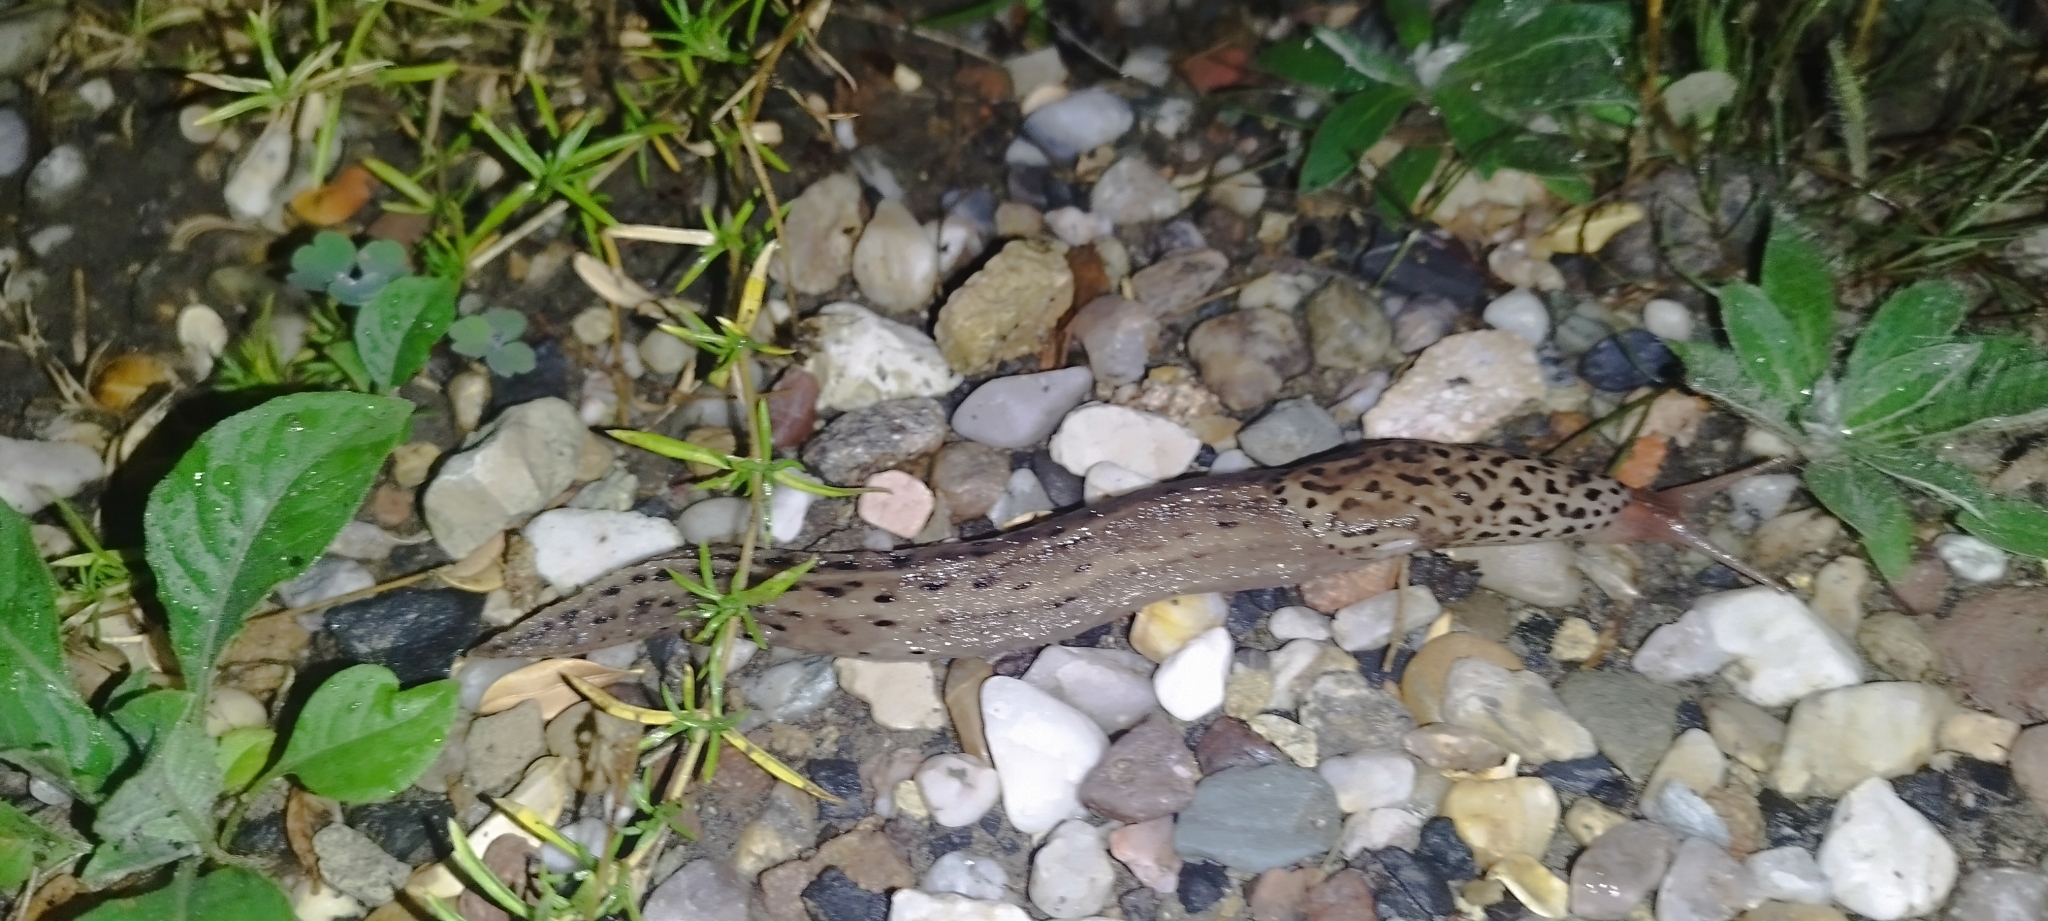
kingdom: Animalia
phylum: Mollusca
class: Gastropoda
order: Stylommatophora
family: Limacidae
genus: Limax
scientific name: Limax maximus
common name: Great grey slug
